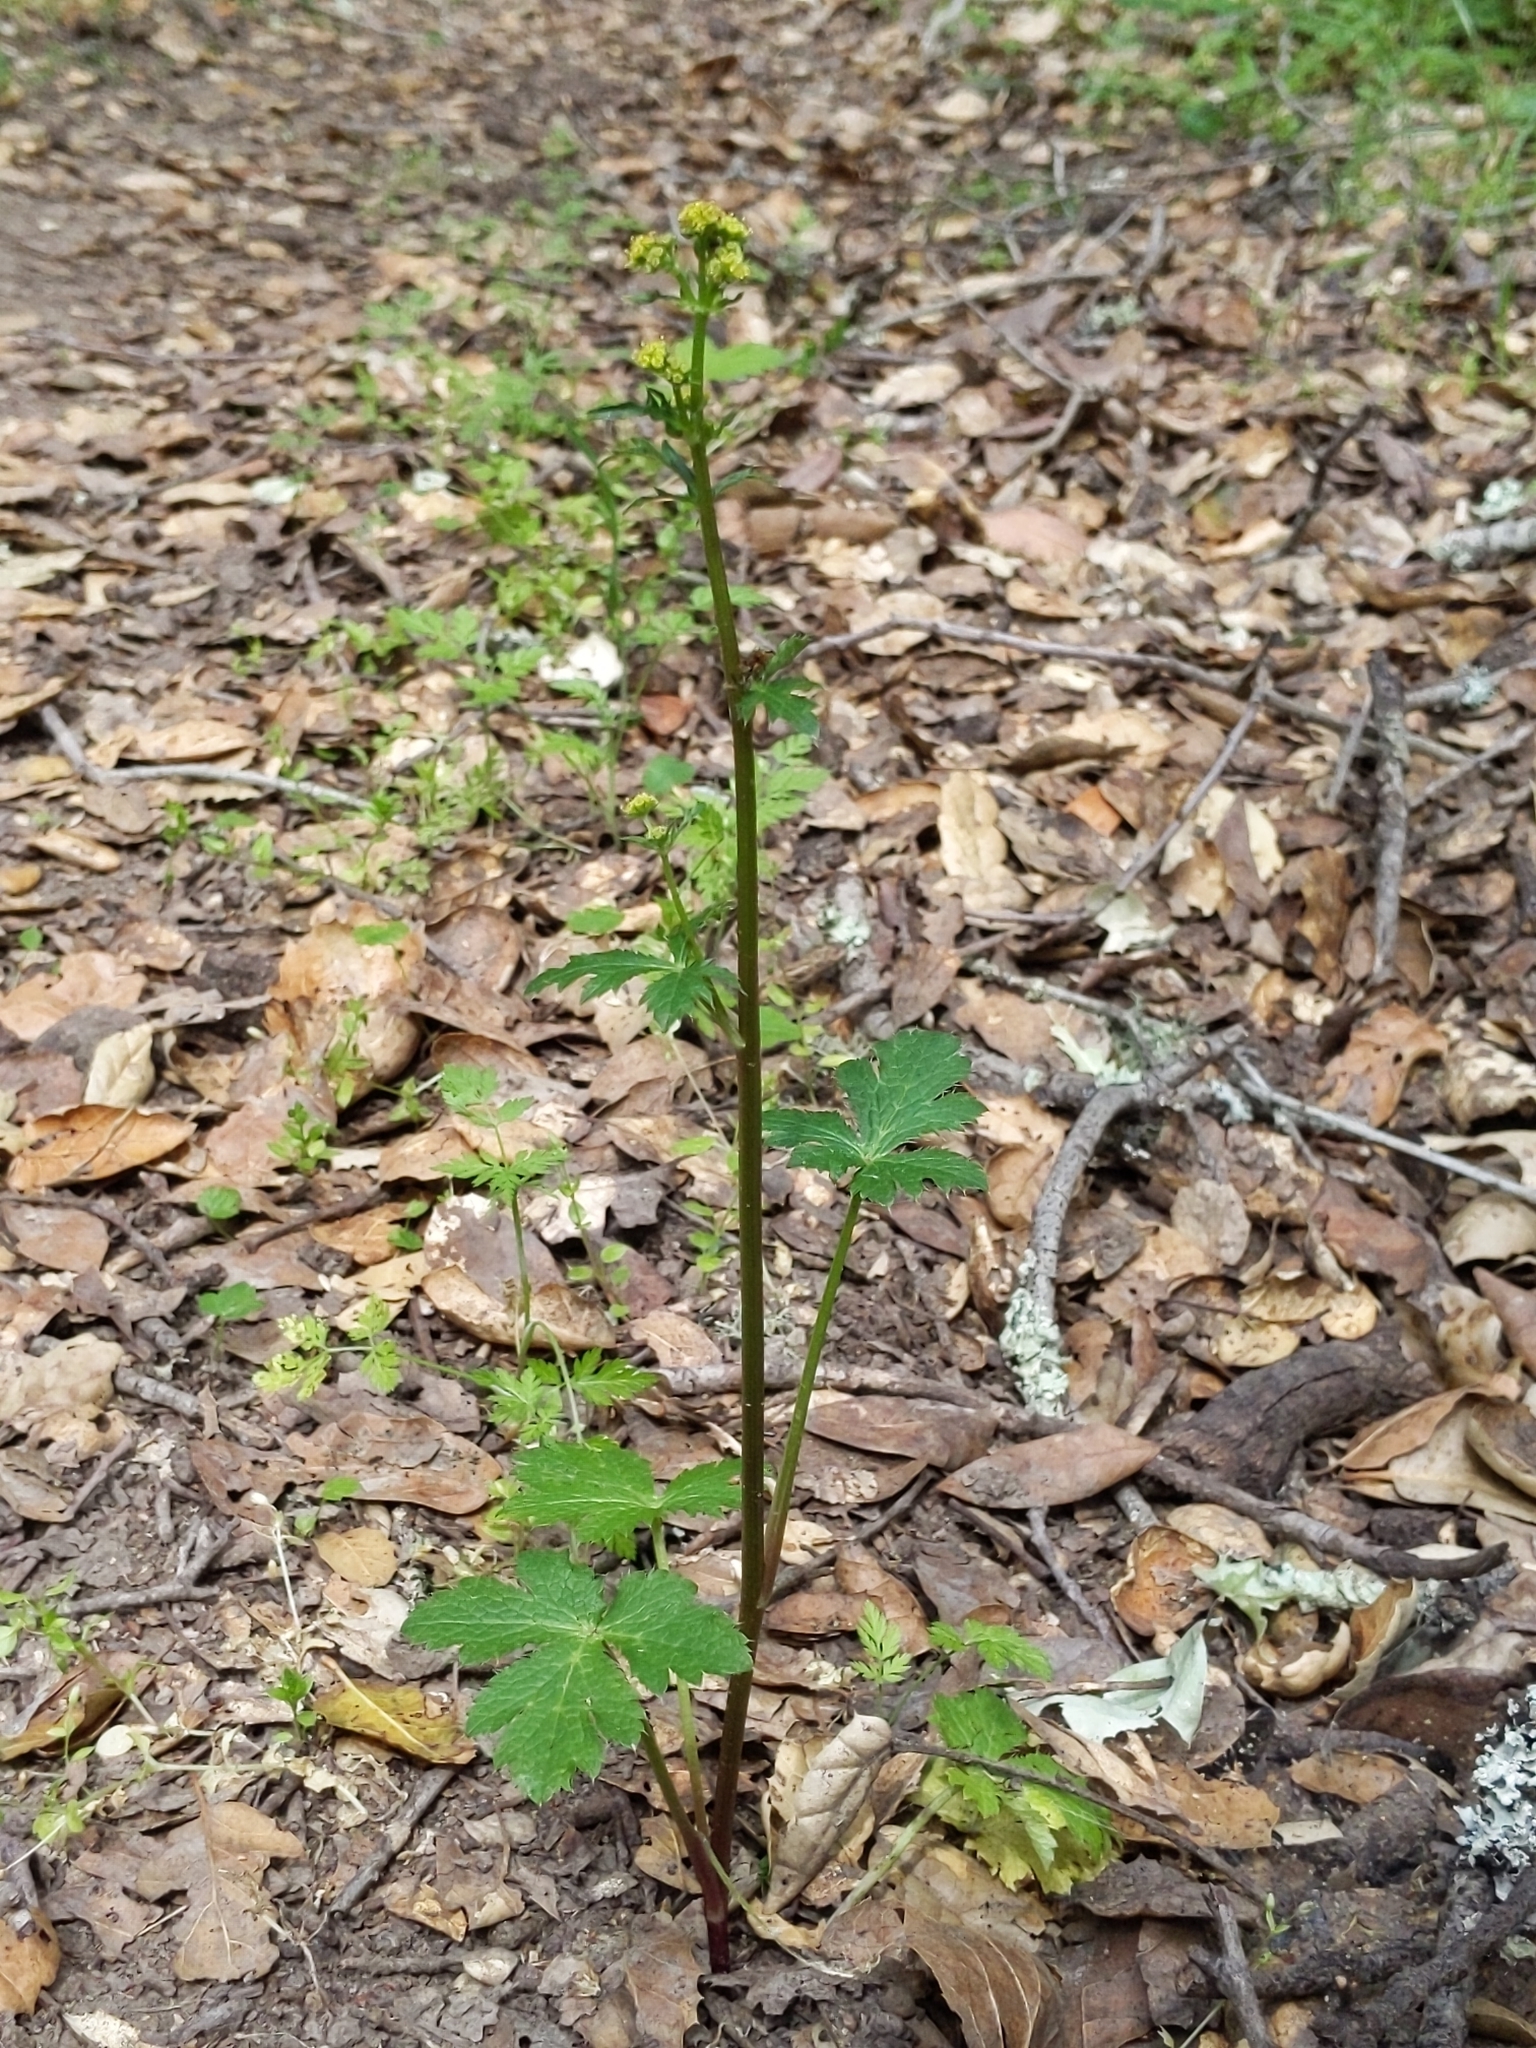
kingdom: Plantae
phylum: Tracheophyta
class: Magnoliopsida
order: Apiales
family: Apiaceae
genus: Sanicula
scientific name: Sanicula crassicaulis
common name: Western snakeroot
